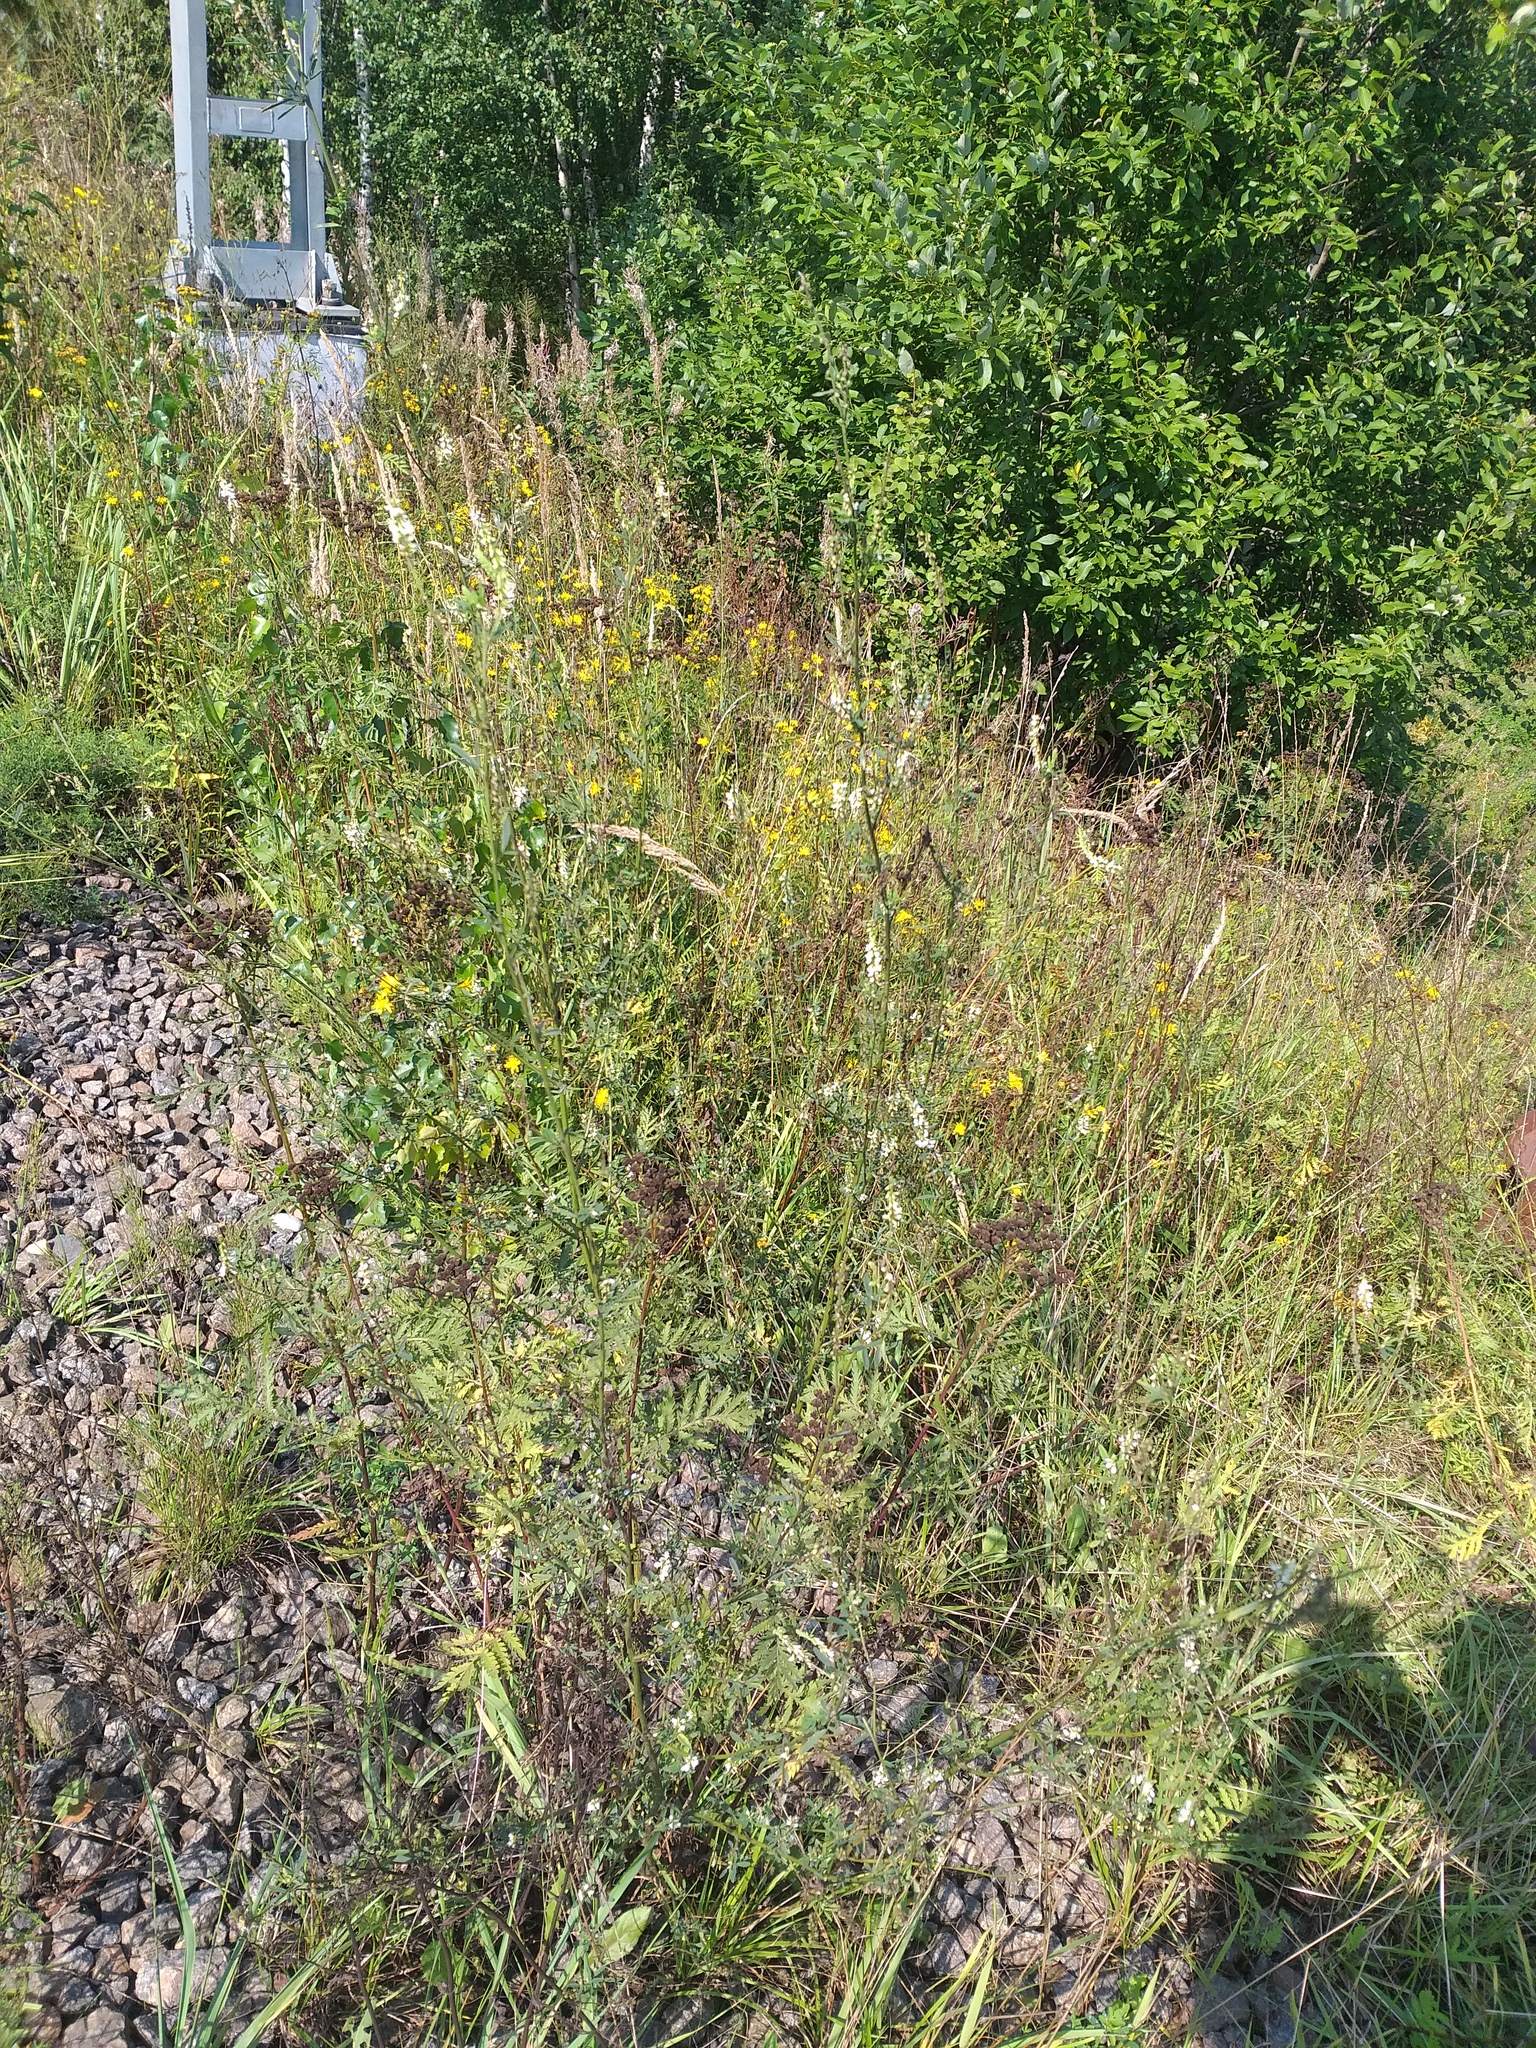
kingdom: Plantae
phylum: Tracheophyta
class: Magnoliopsida
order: Fabales
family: Fabaceae
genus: Melilotus
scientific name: Melilotus albus
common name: White melilot
